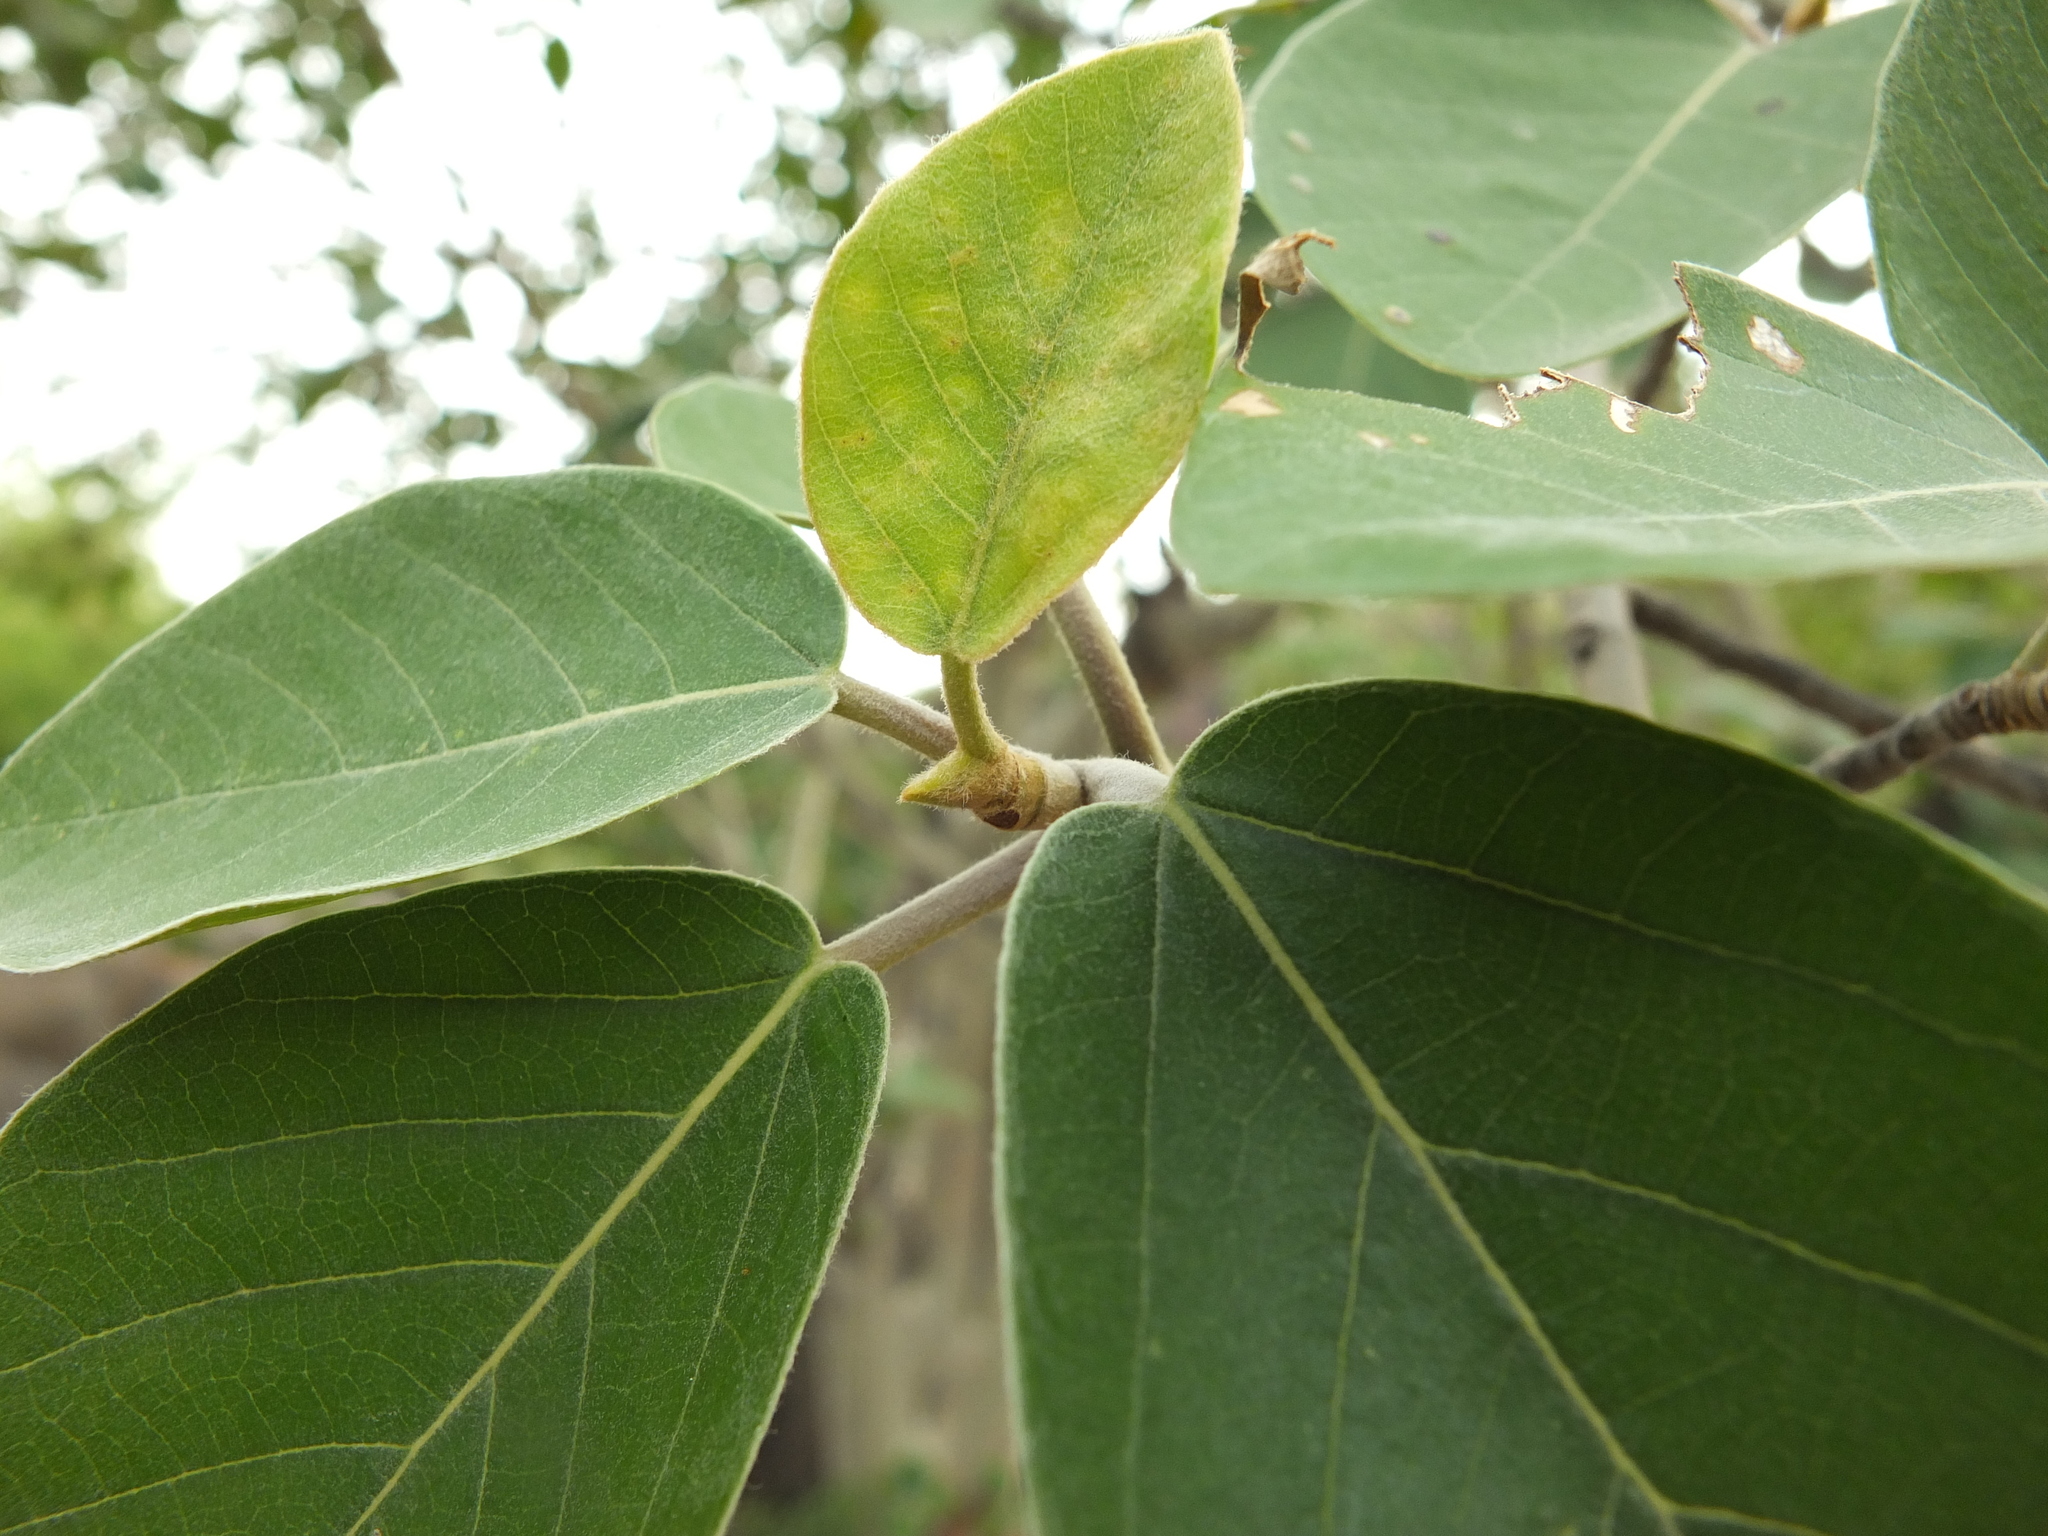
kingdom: Plantae
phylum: Tracheophyta
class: Magnoliopsida
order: Rosales
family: Moraceae
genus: Ficus
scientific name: Ficus mollis
